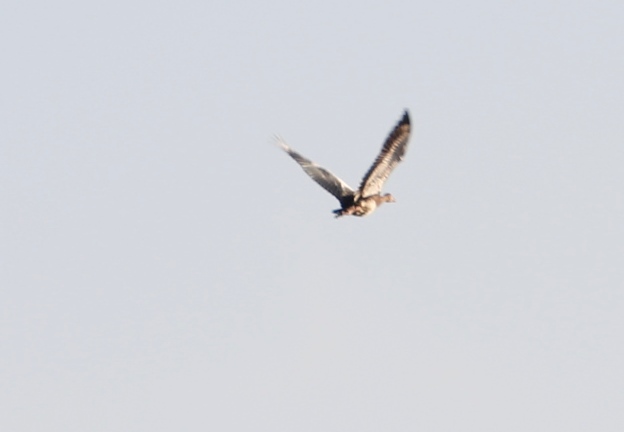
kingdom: Animalia
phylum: Chordata
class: Aves
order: Otidiformes
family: Otididae
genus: Neotis
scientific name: Neotis denhami
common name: Denham's bustard
